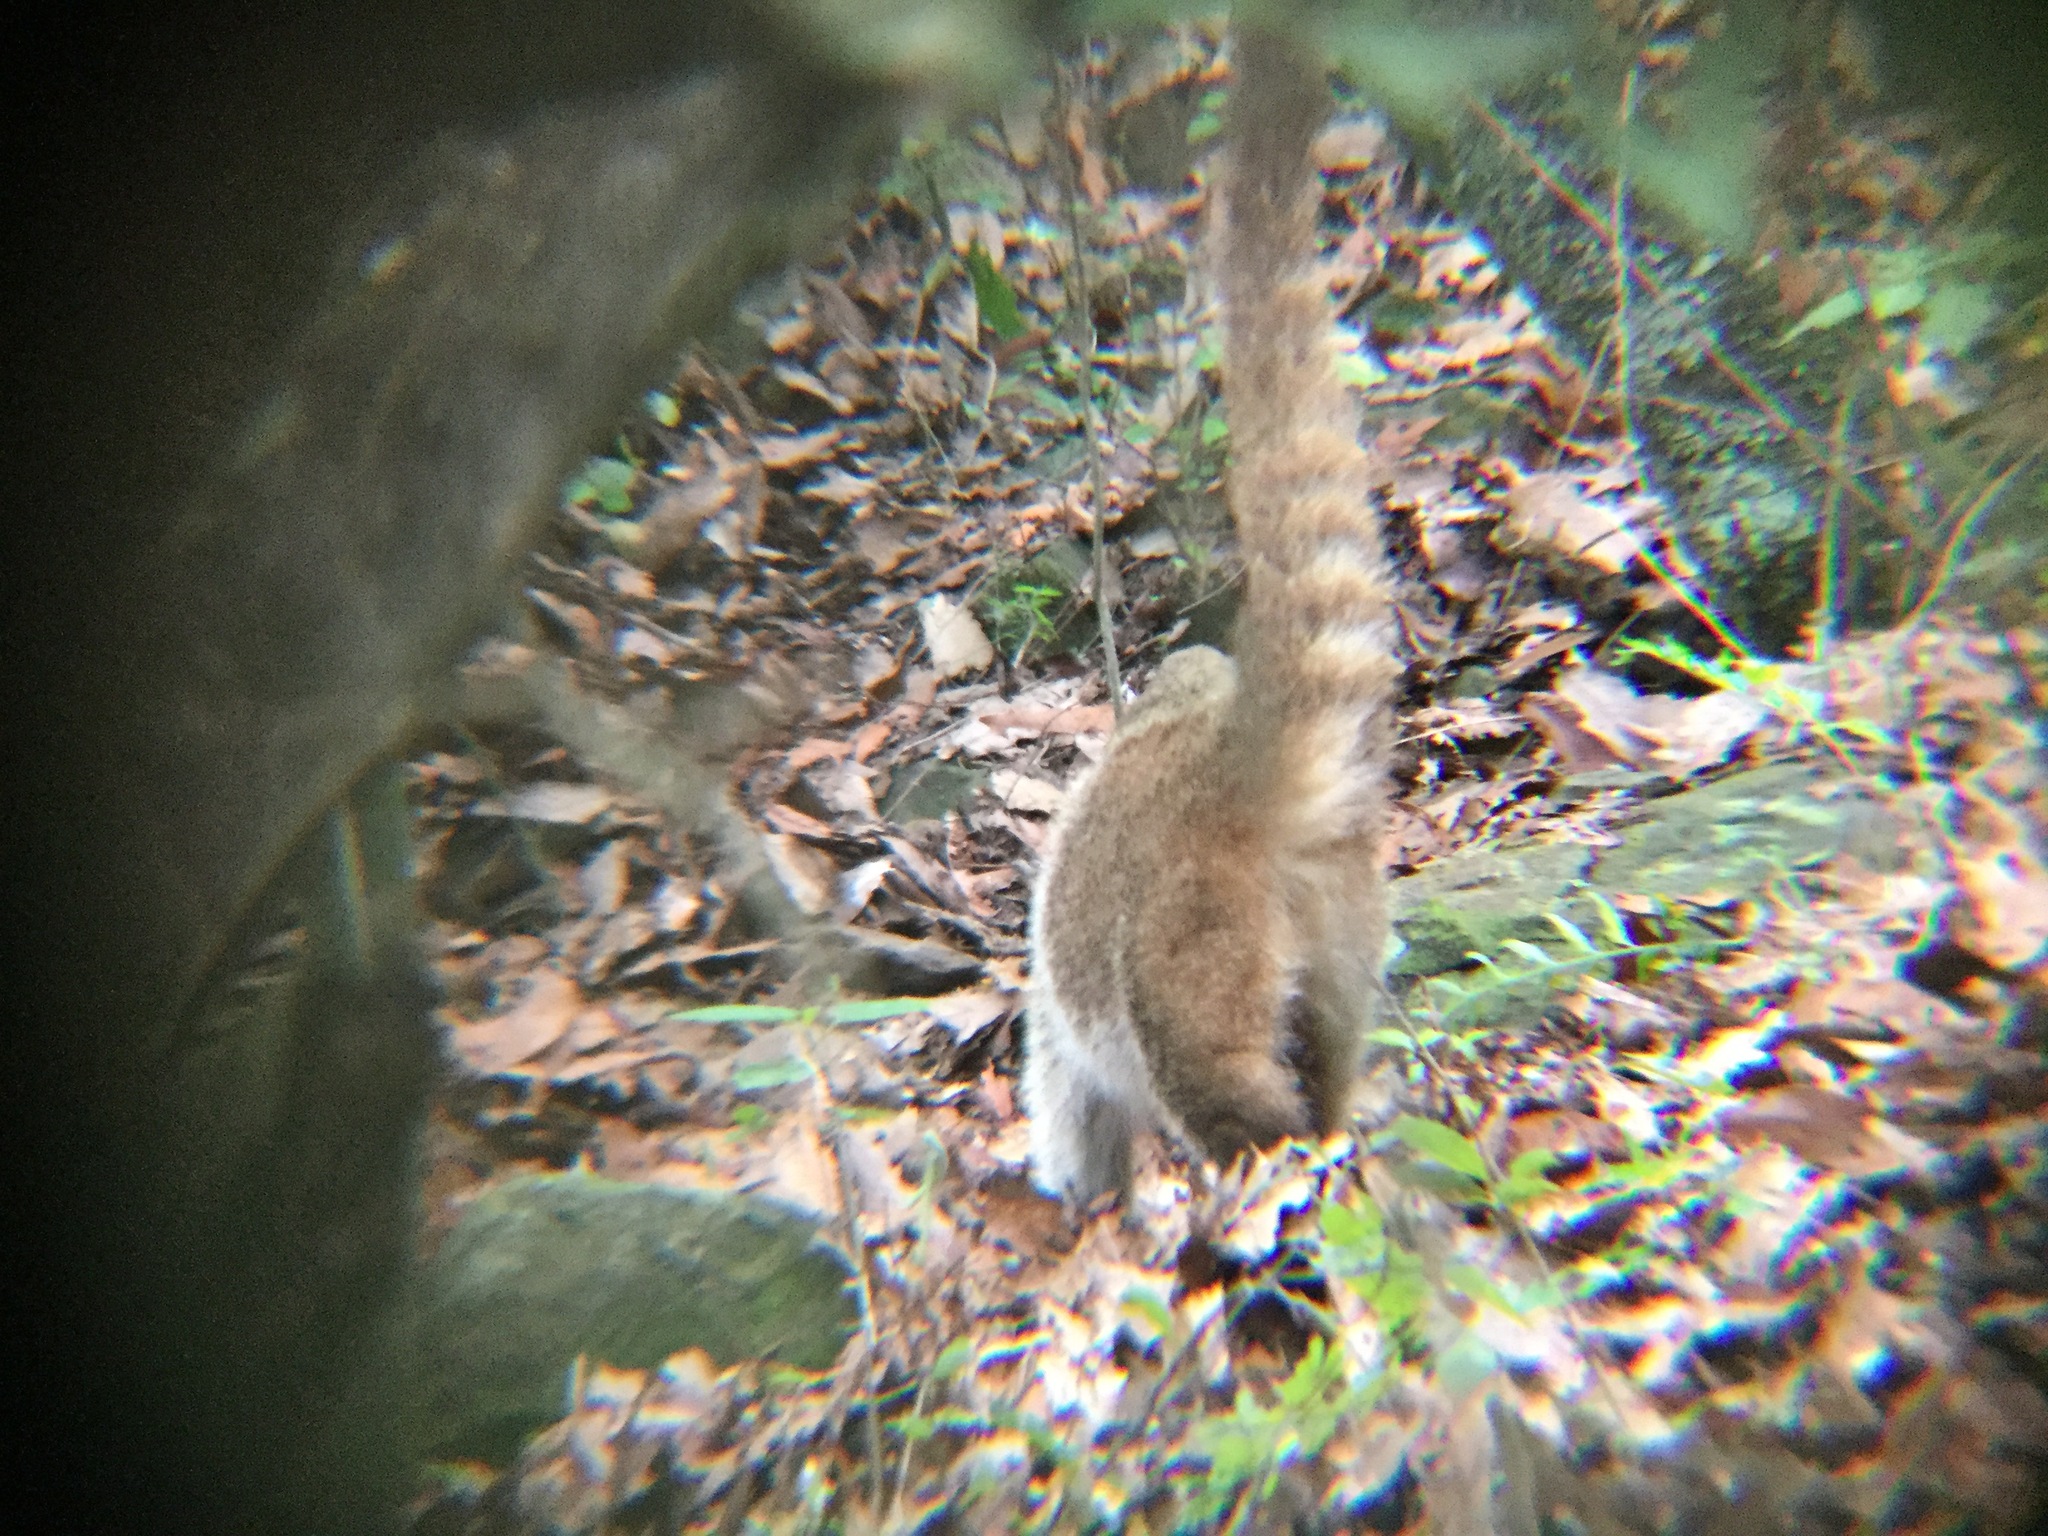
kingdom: Animalia
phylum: Chordata
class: Mammalia
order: Carnivora
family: Procyonidae
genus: Nasua
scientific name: Nasua narica
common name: White-nosed coati
